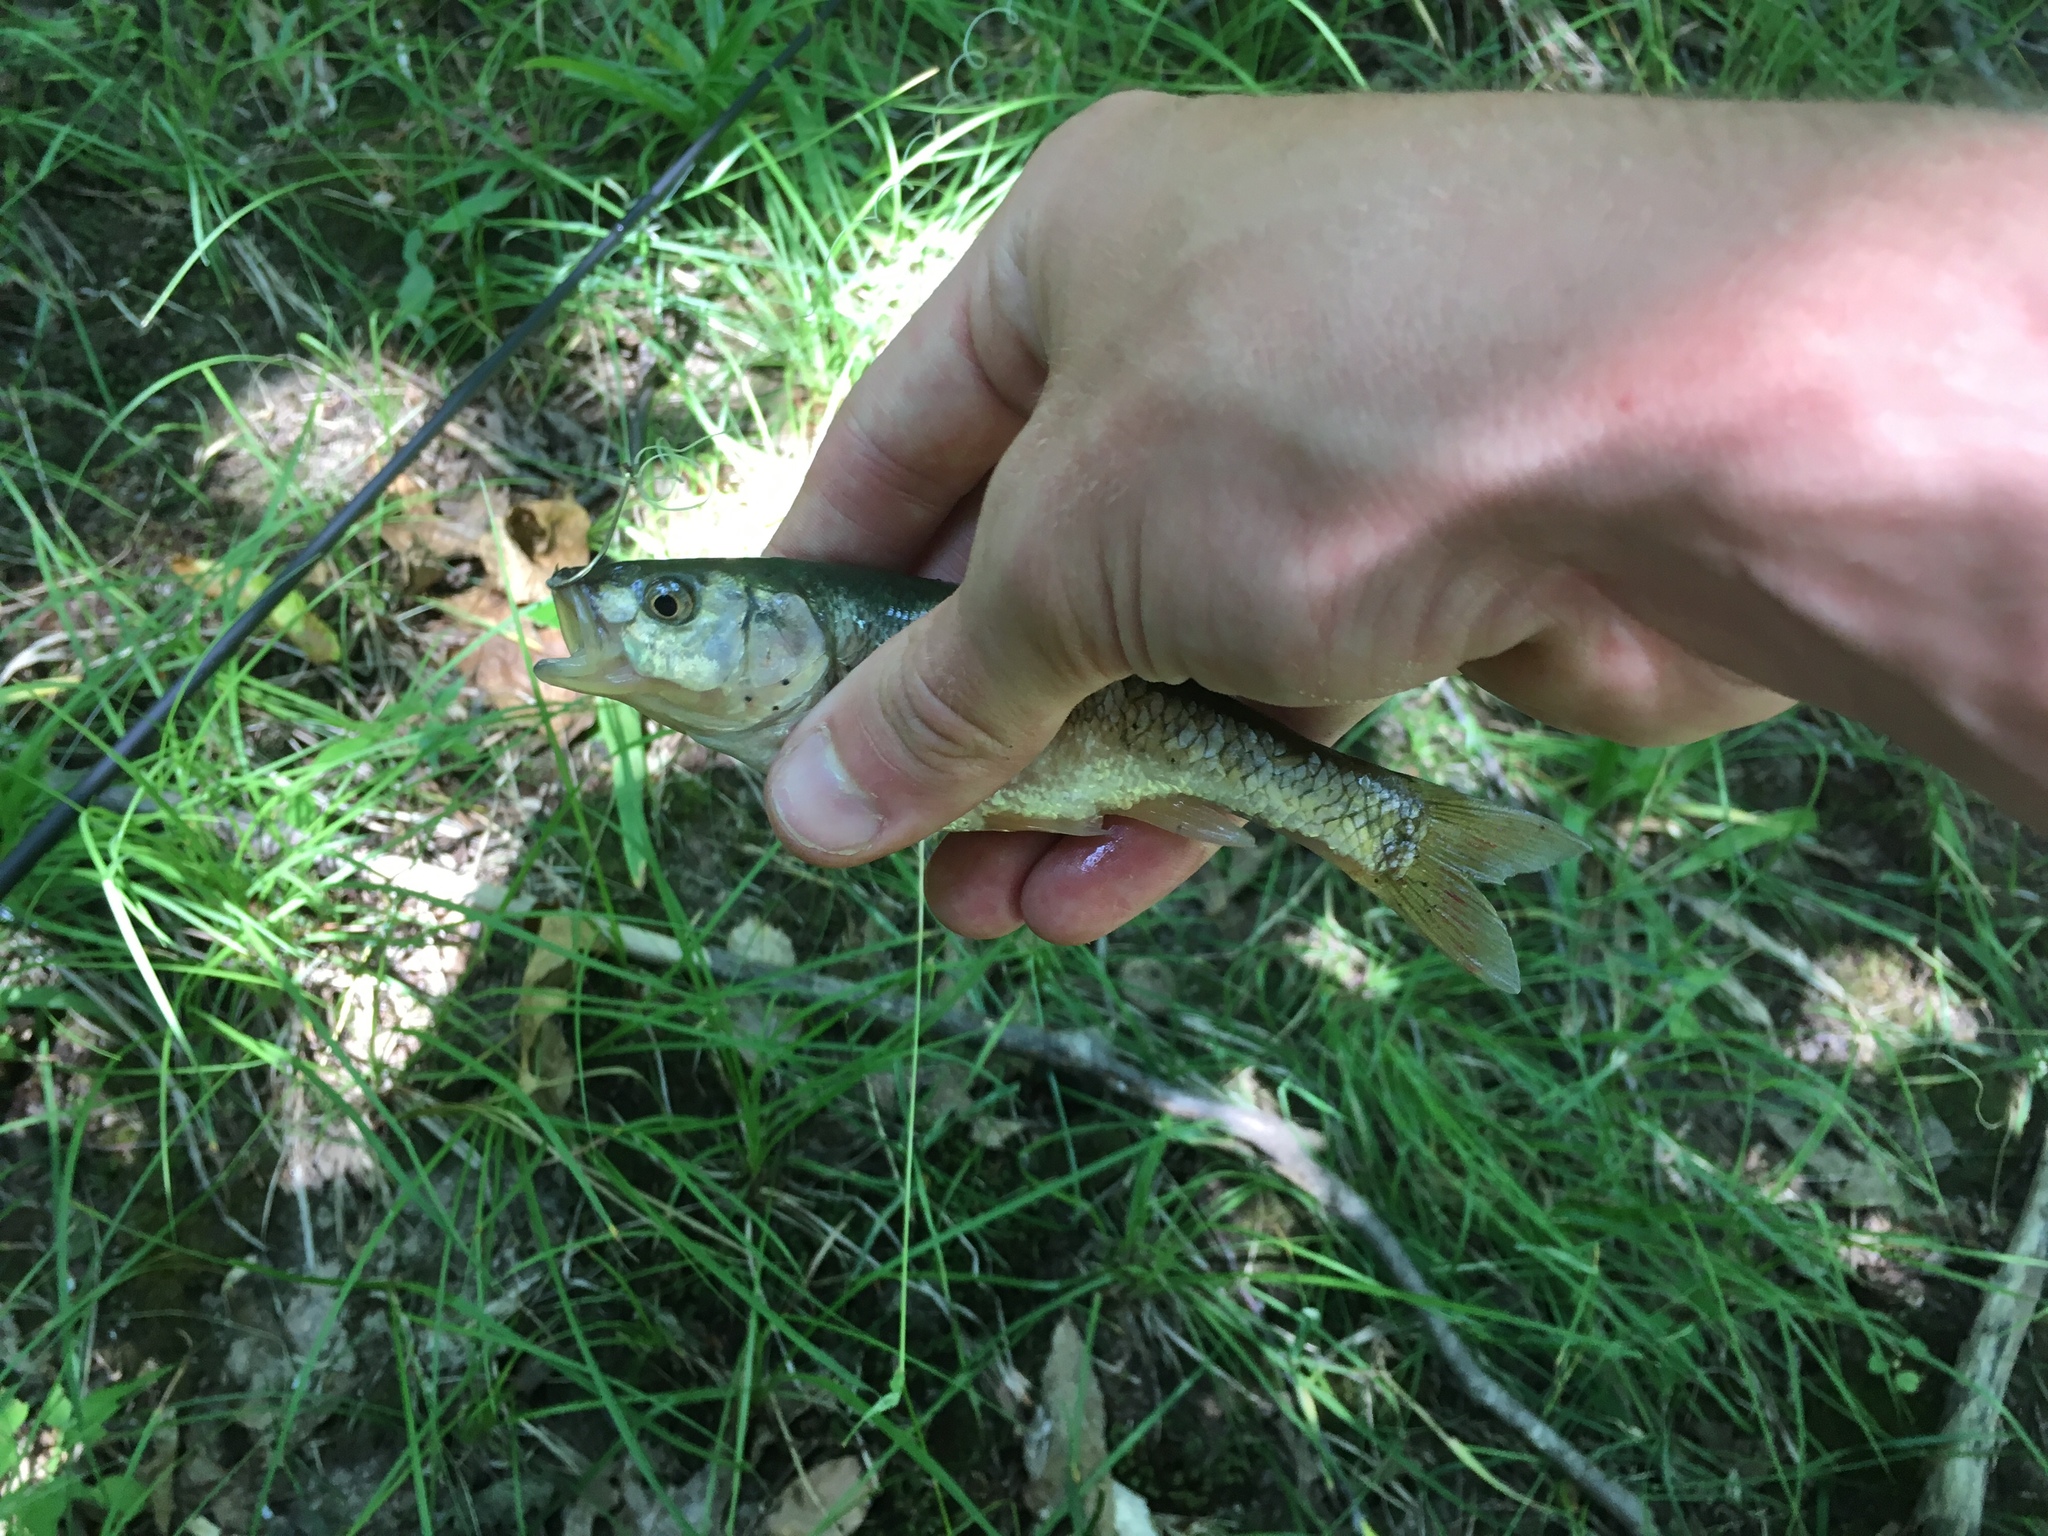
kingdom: Animalia
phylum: Chordata
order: Cypriniformes
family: Cyprinidae
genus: Semotilus
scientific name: Semotilus atromaculatus
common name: Creek chub
